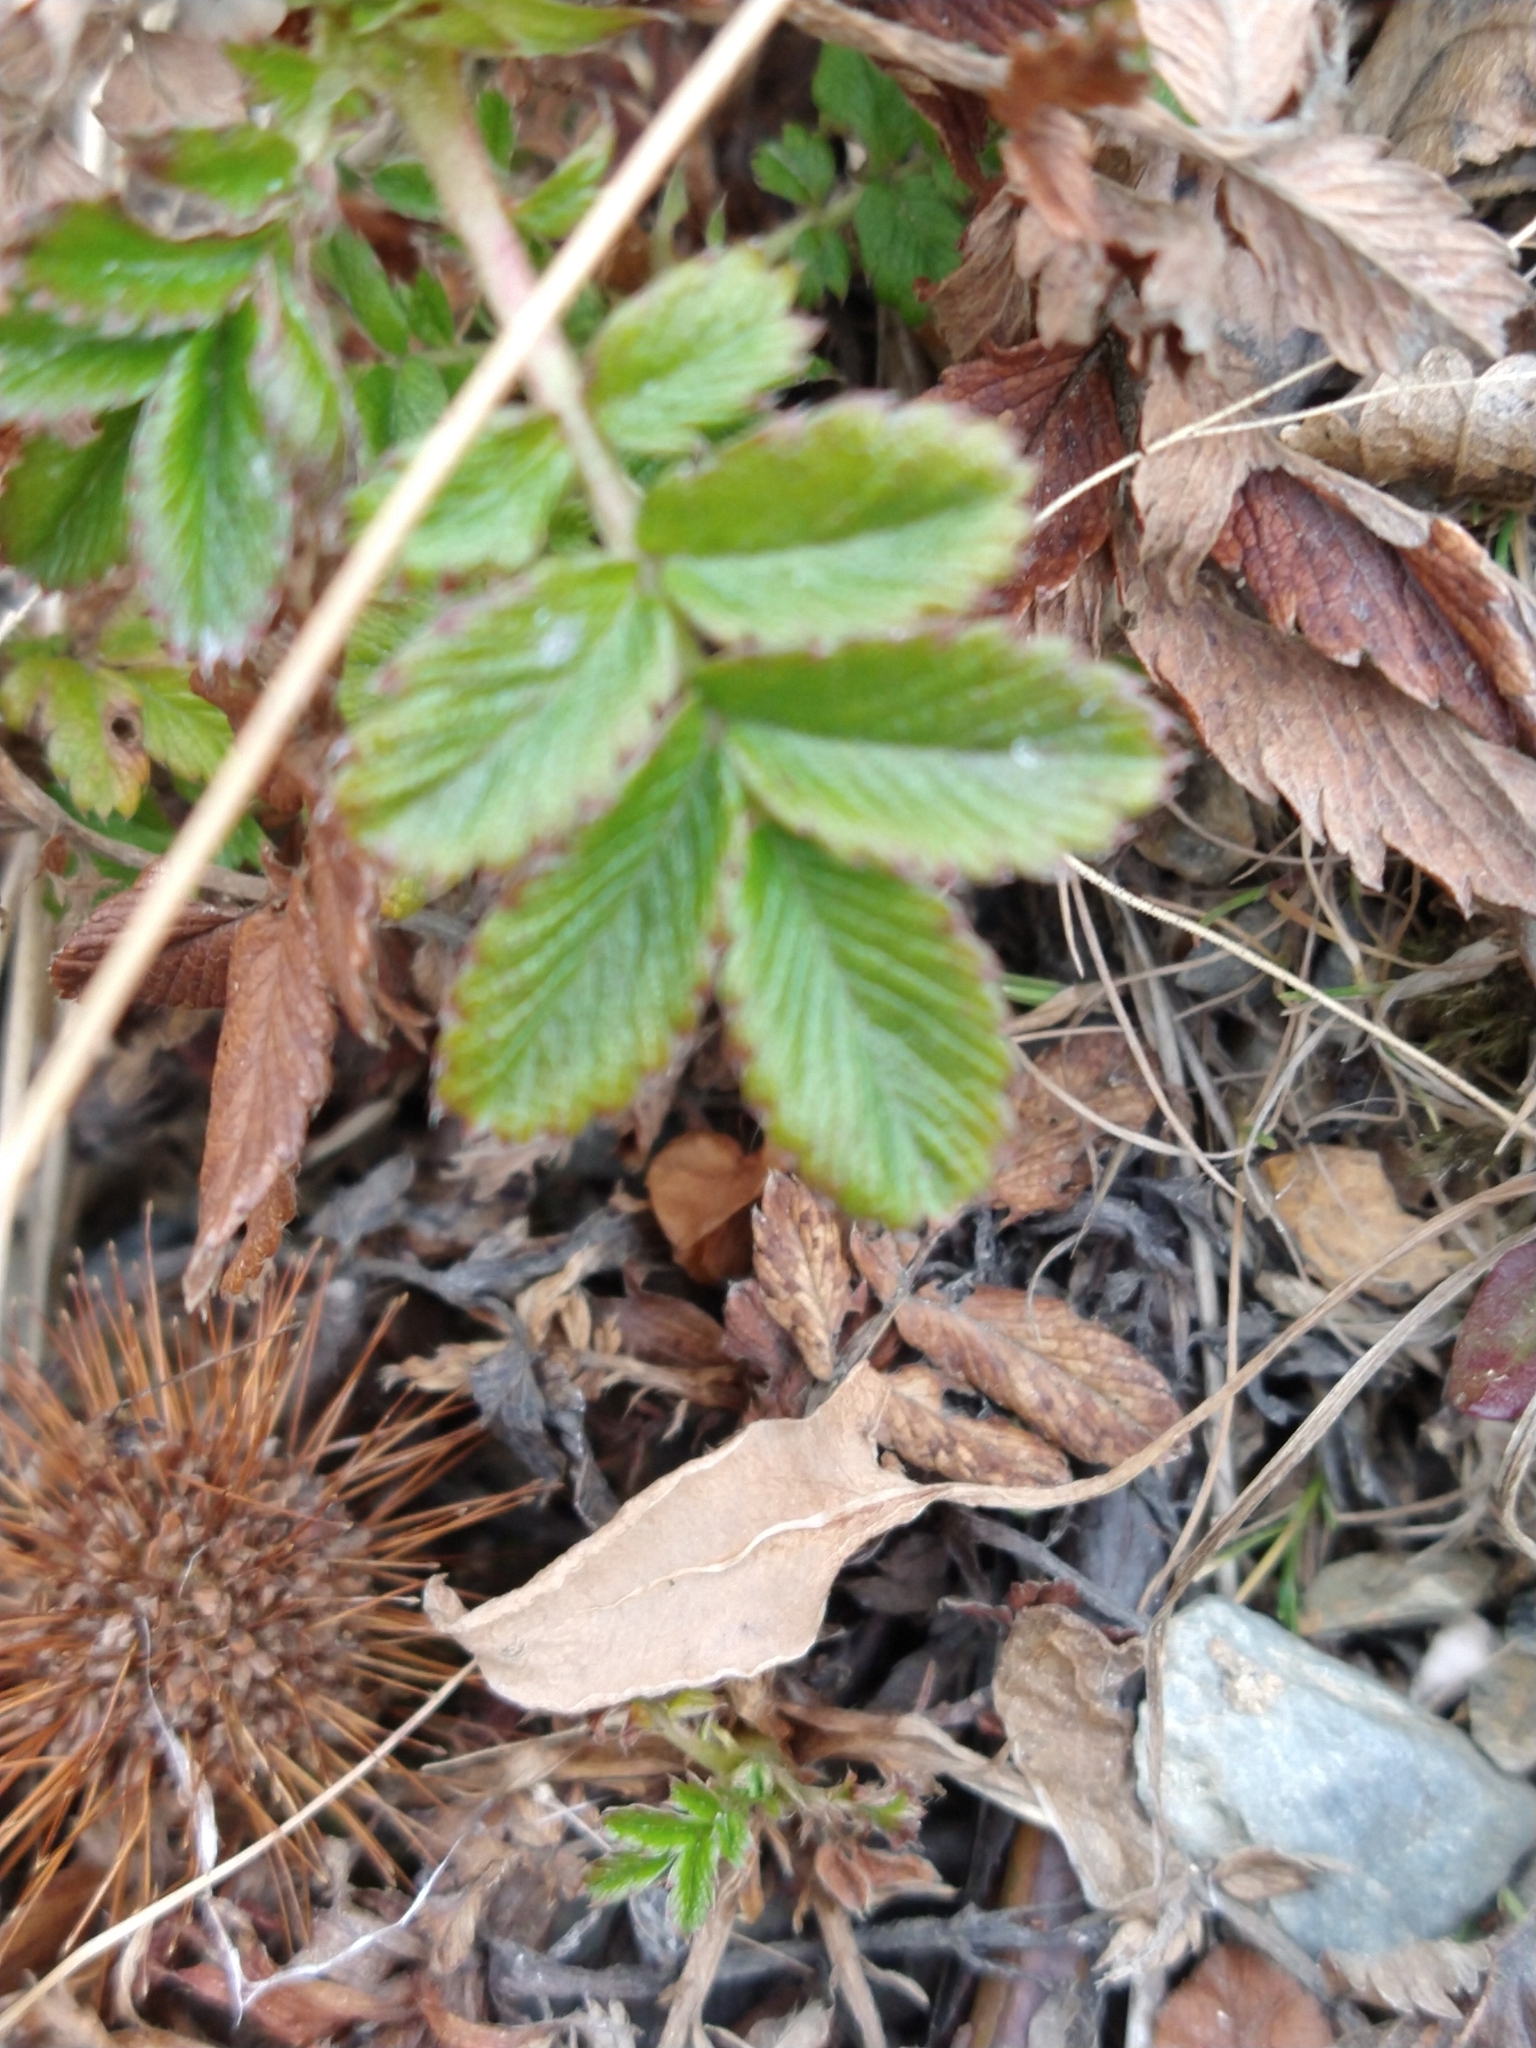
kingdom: Plantae
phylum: Tracheophyta
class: Magnoliopsida
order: Rosales
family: Rosaceae
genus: Acaena
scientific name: Acaena ovalifolia
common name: Two-spined acaena
